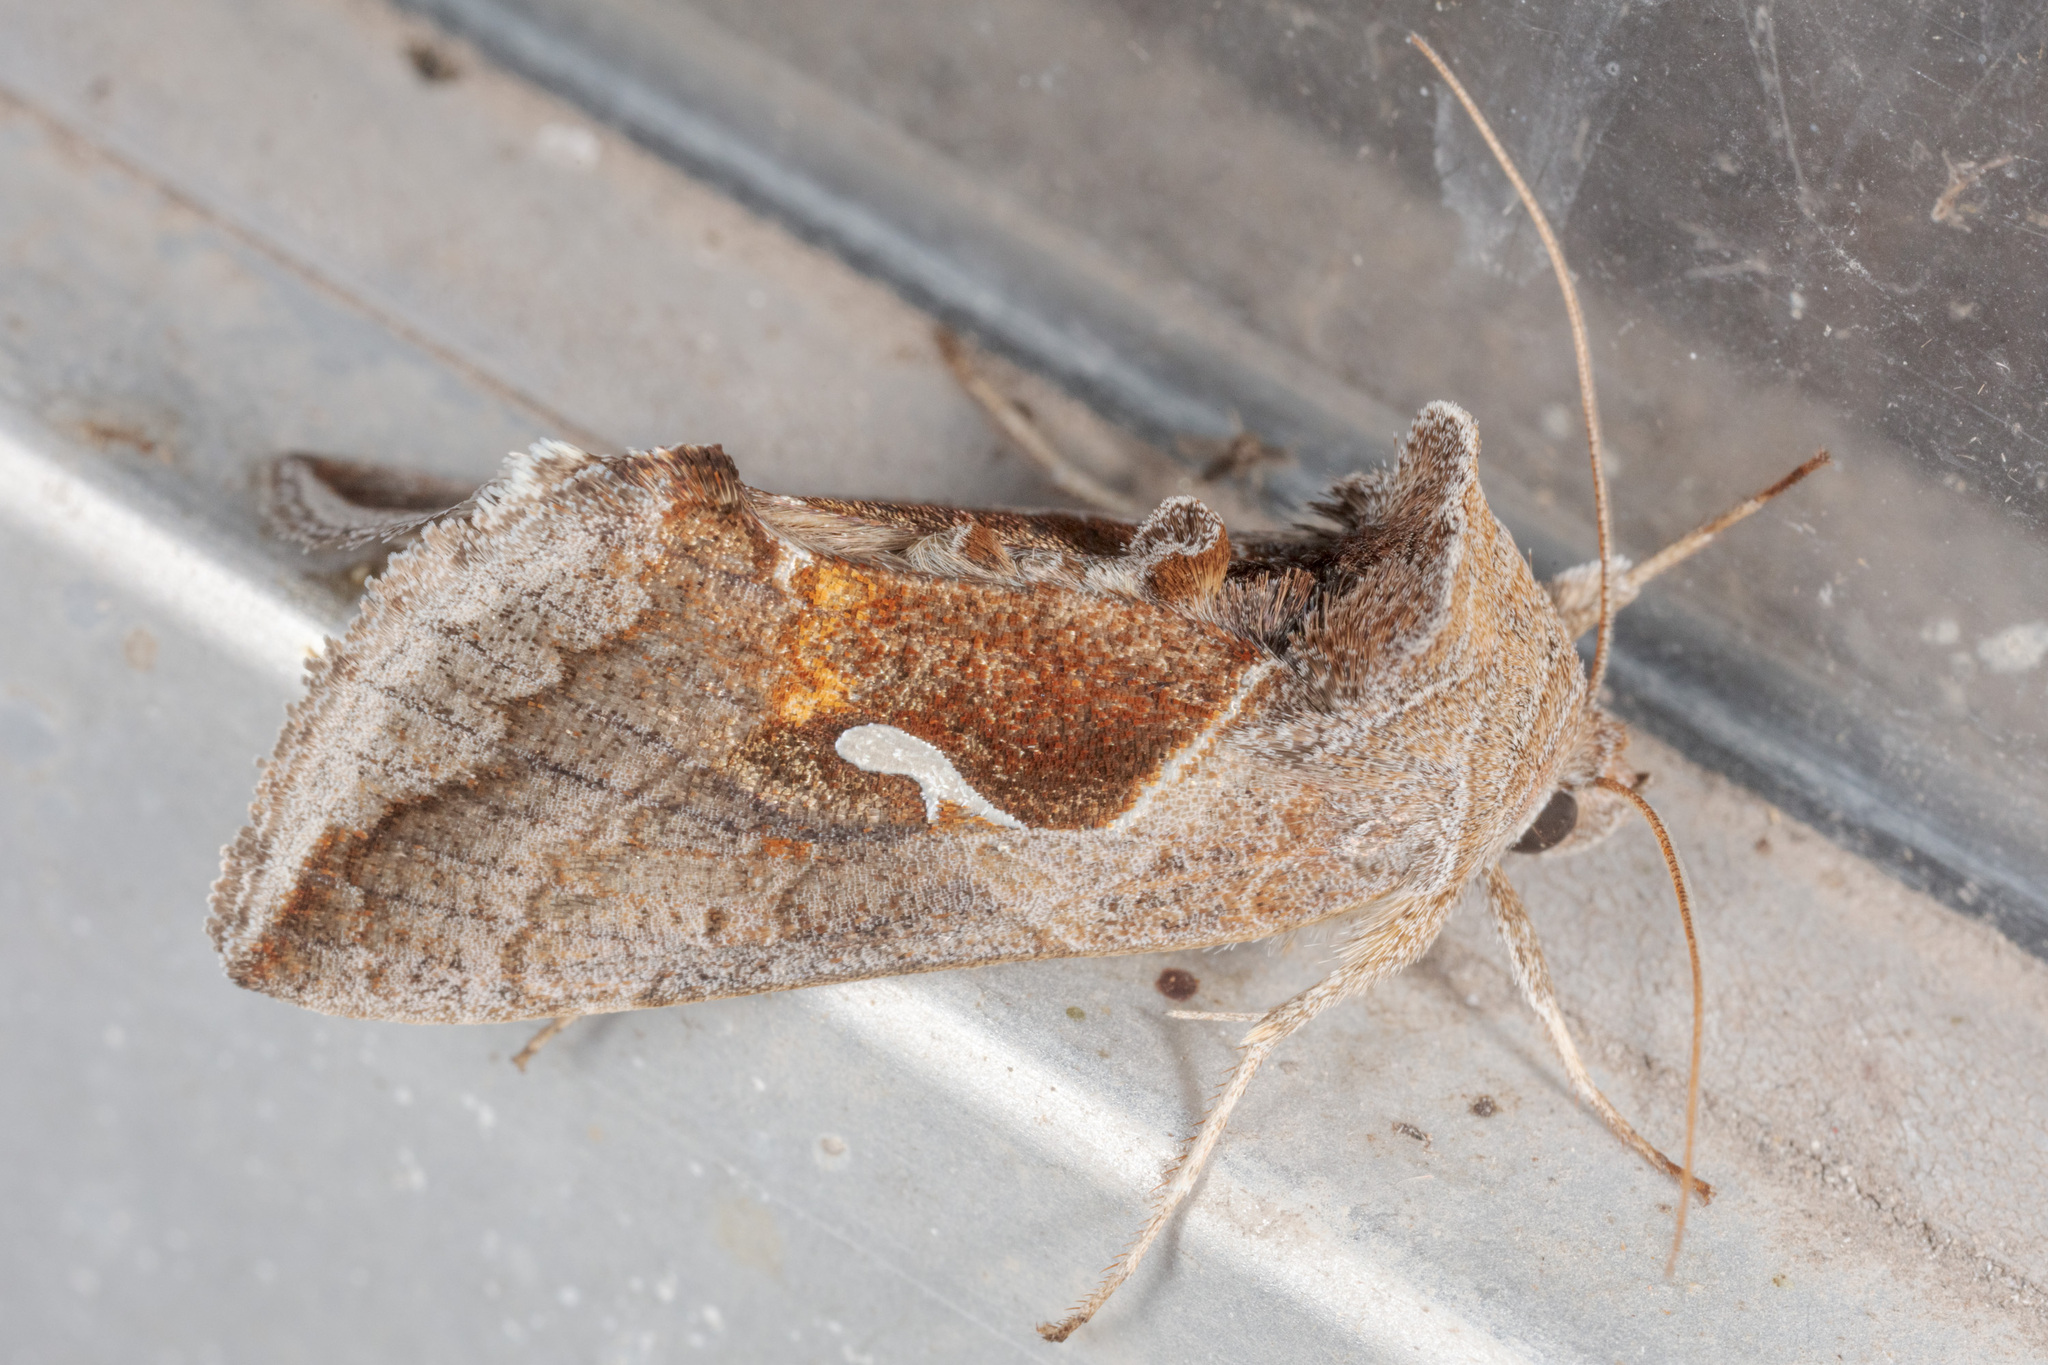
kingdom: Animalia
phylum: Arthropoda
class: Insecta
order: Lepidoptera
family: Noctuidae
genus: Anagrapha
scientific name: Anagrapha falcifera
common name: Celery looper
